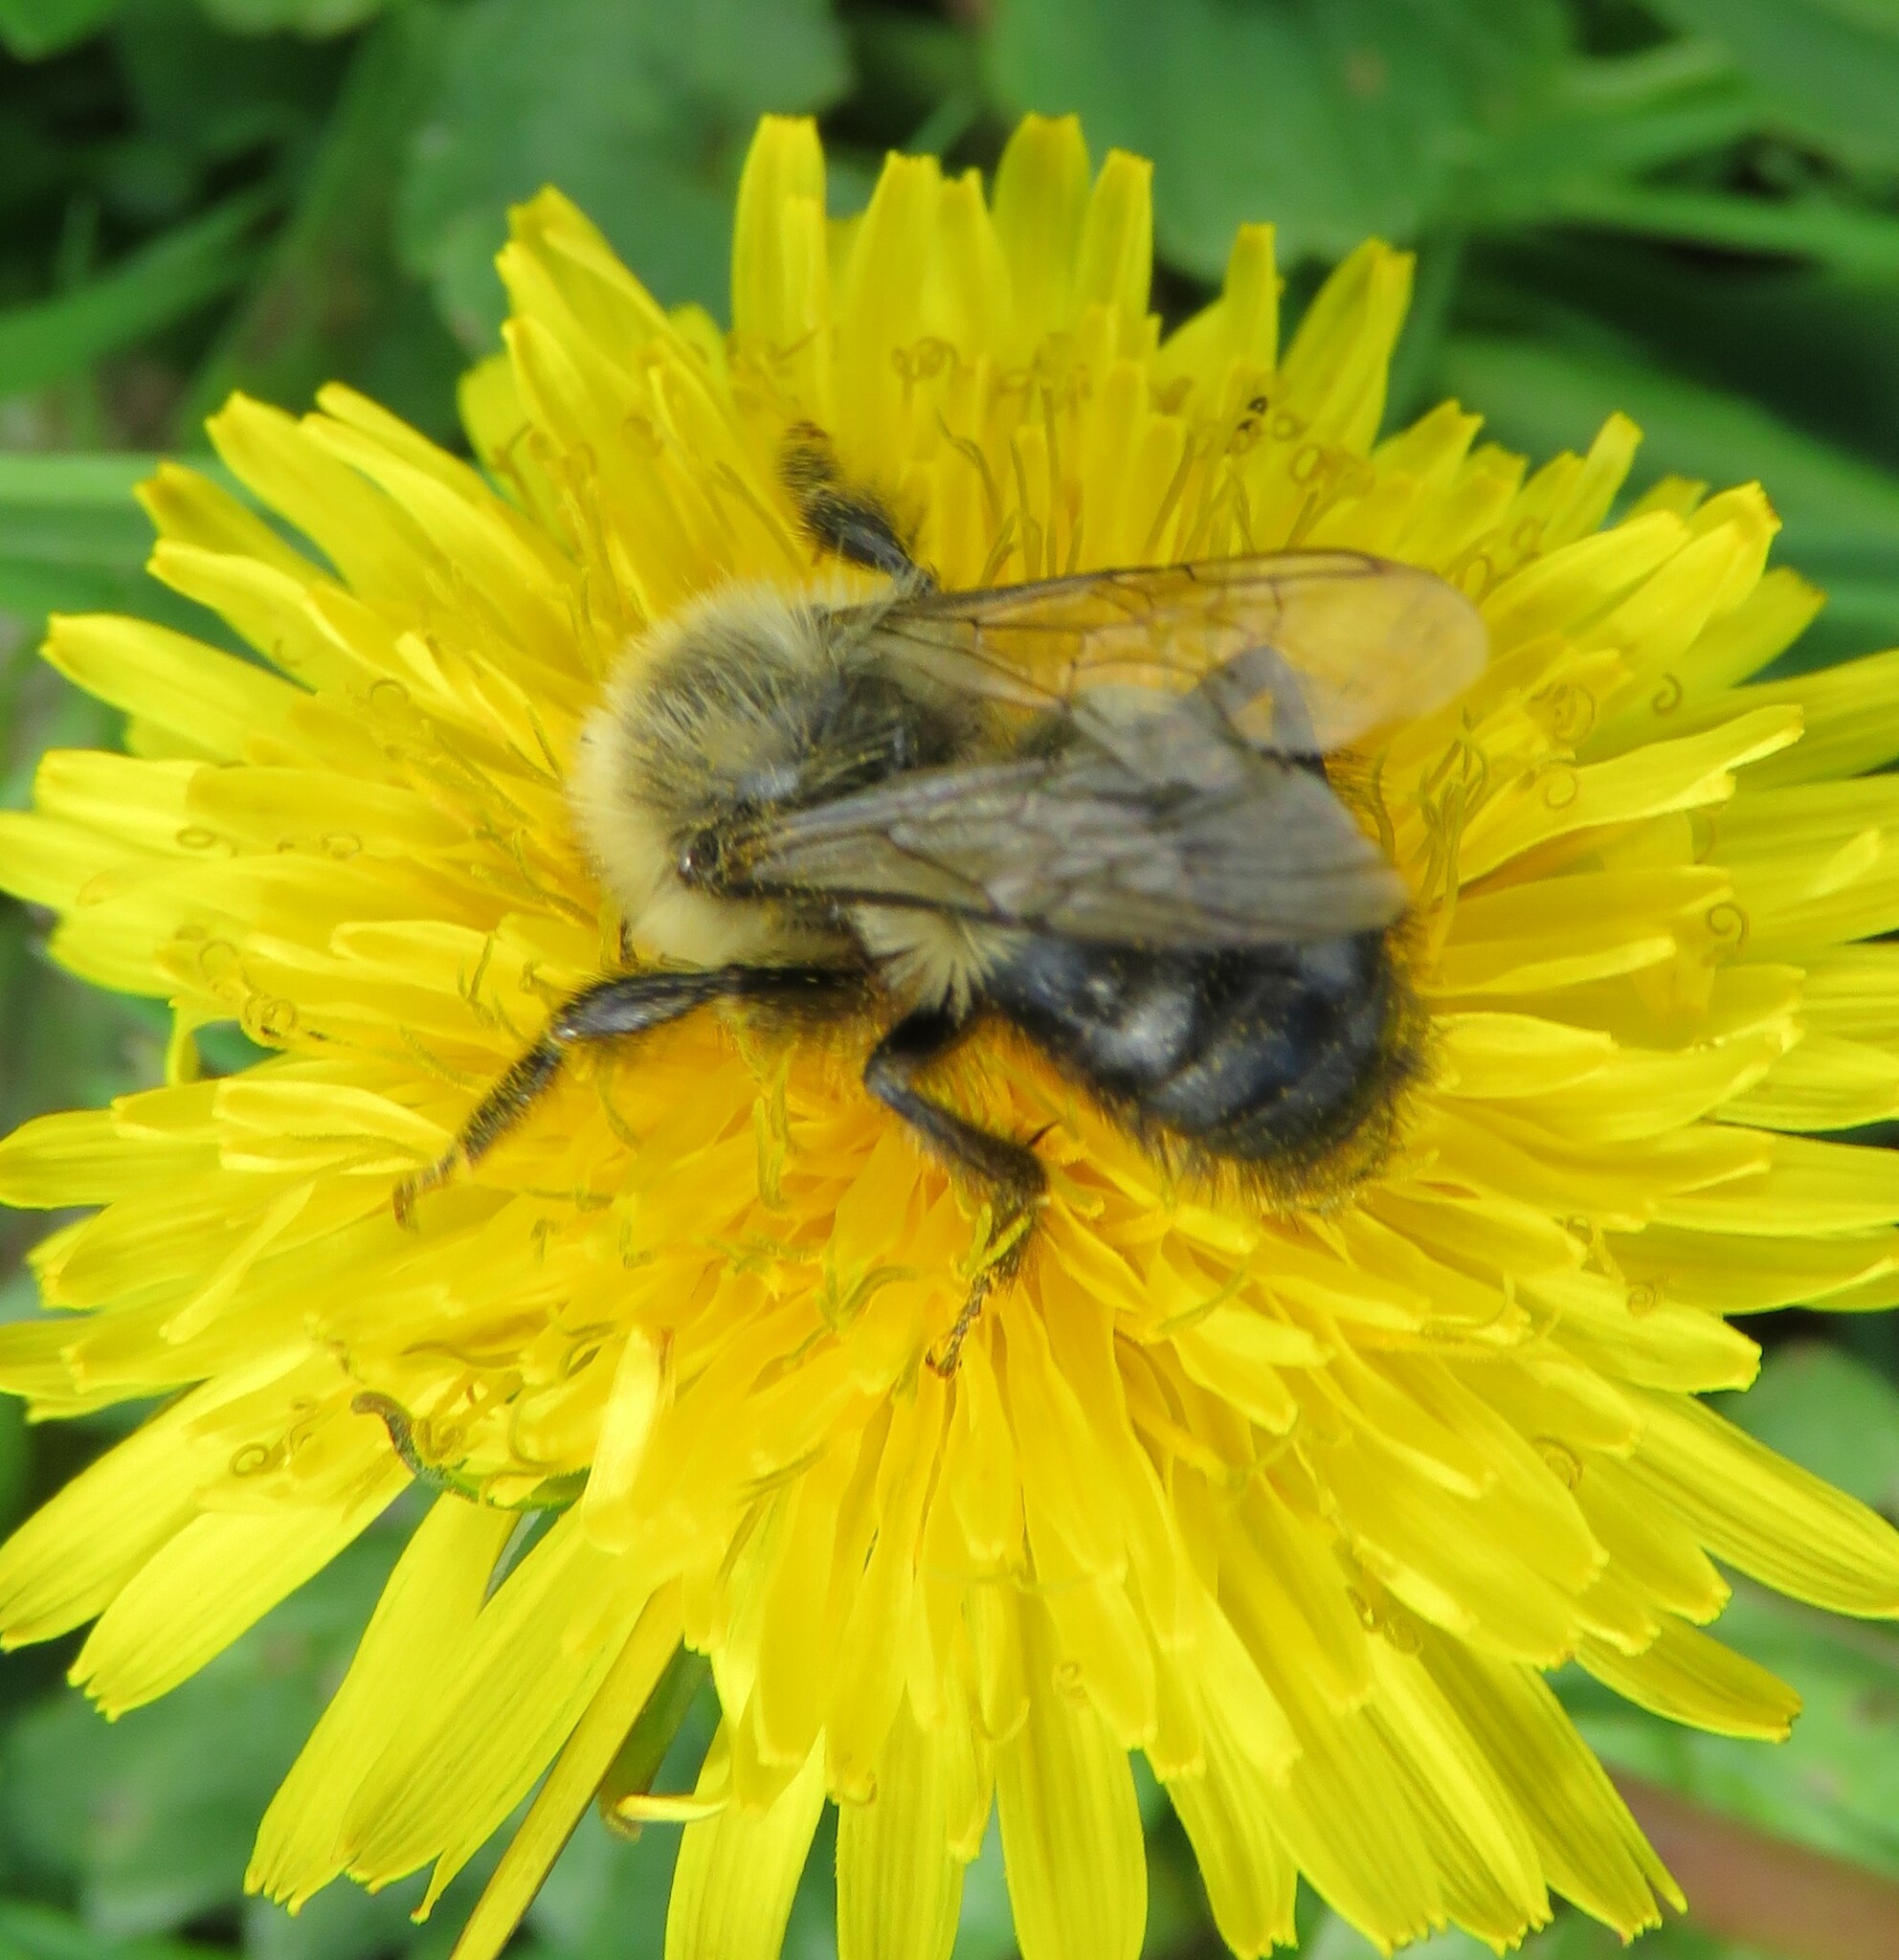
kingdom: Animalia
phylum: Arthropoda
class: Insecta
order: Hymenoptera
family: Apidae
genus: Bombus
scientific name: Bombus impatiens
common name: Common eastern bumble bee
